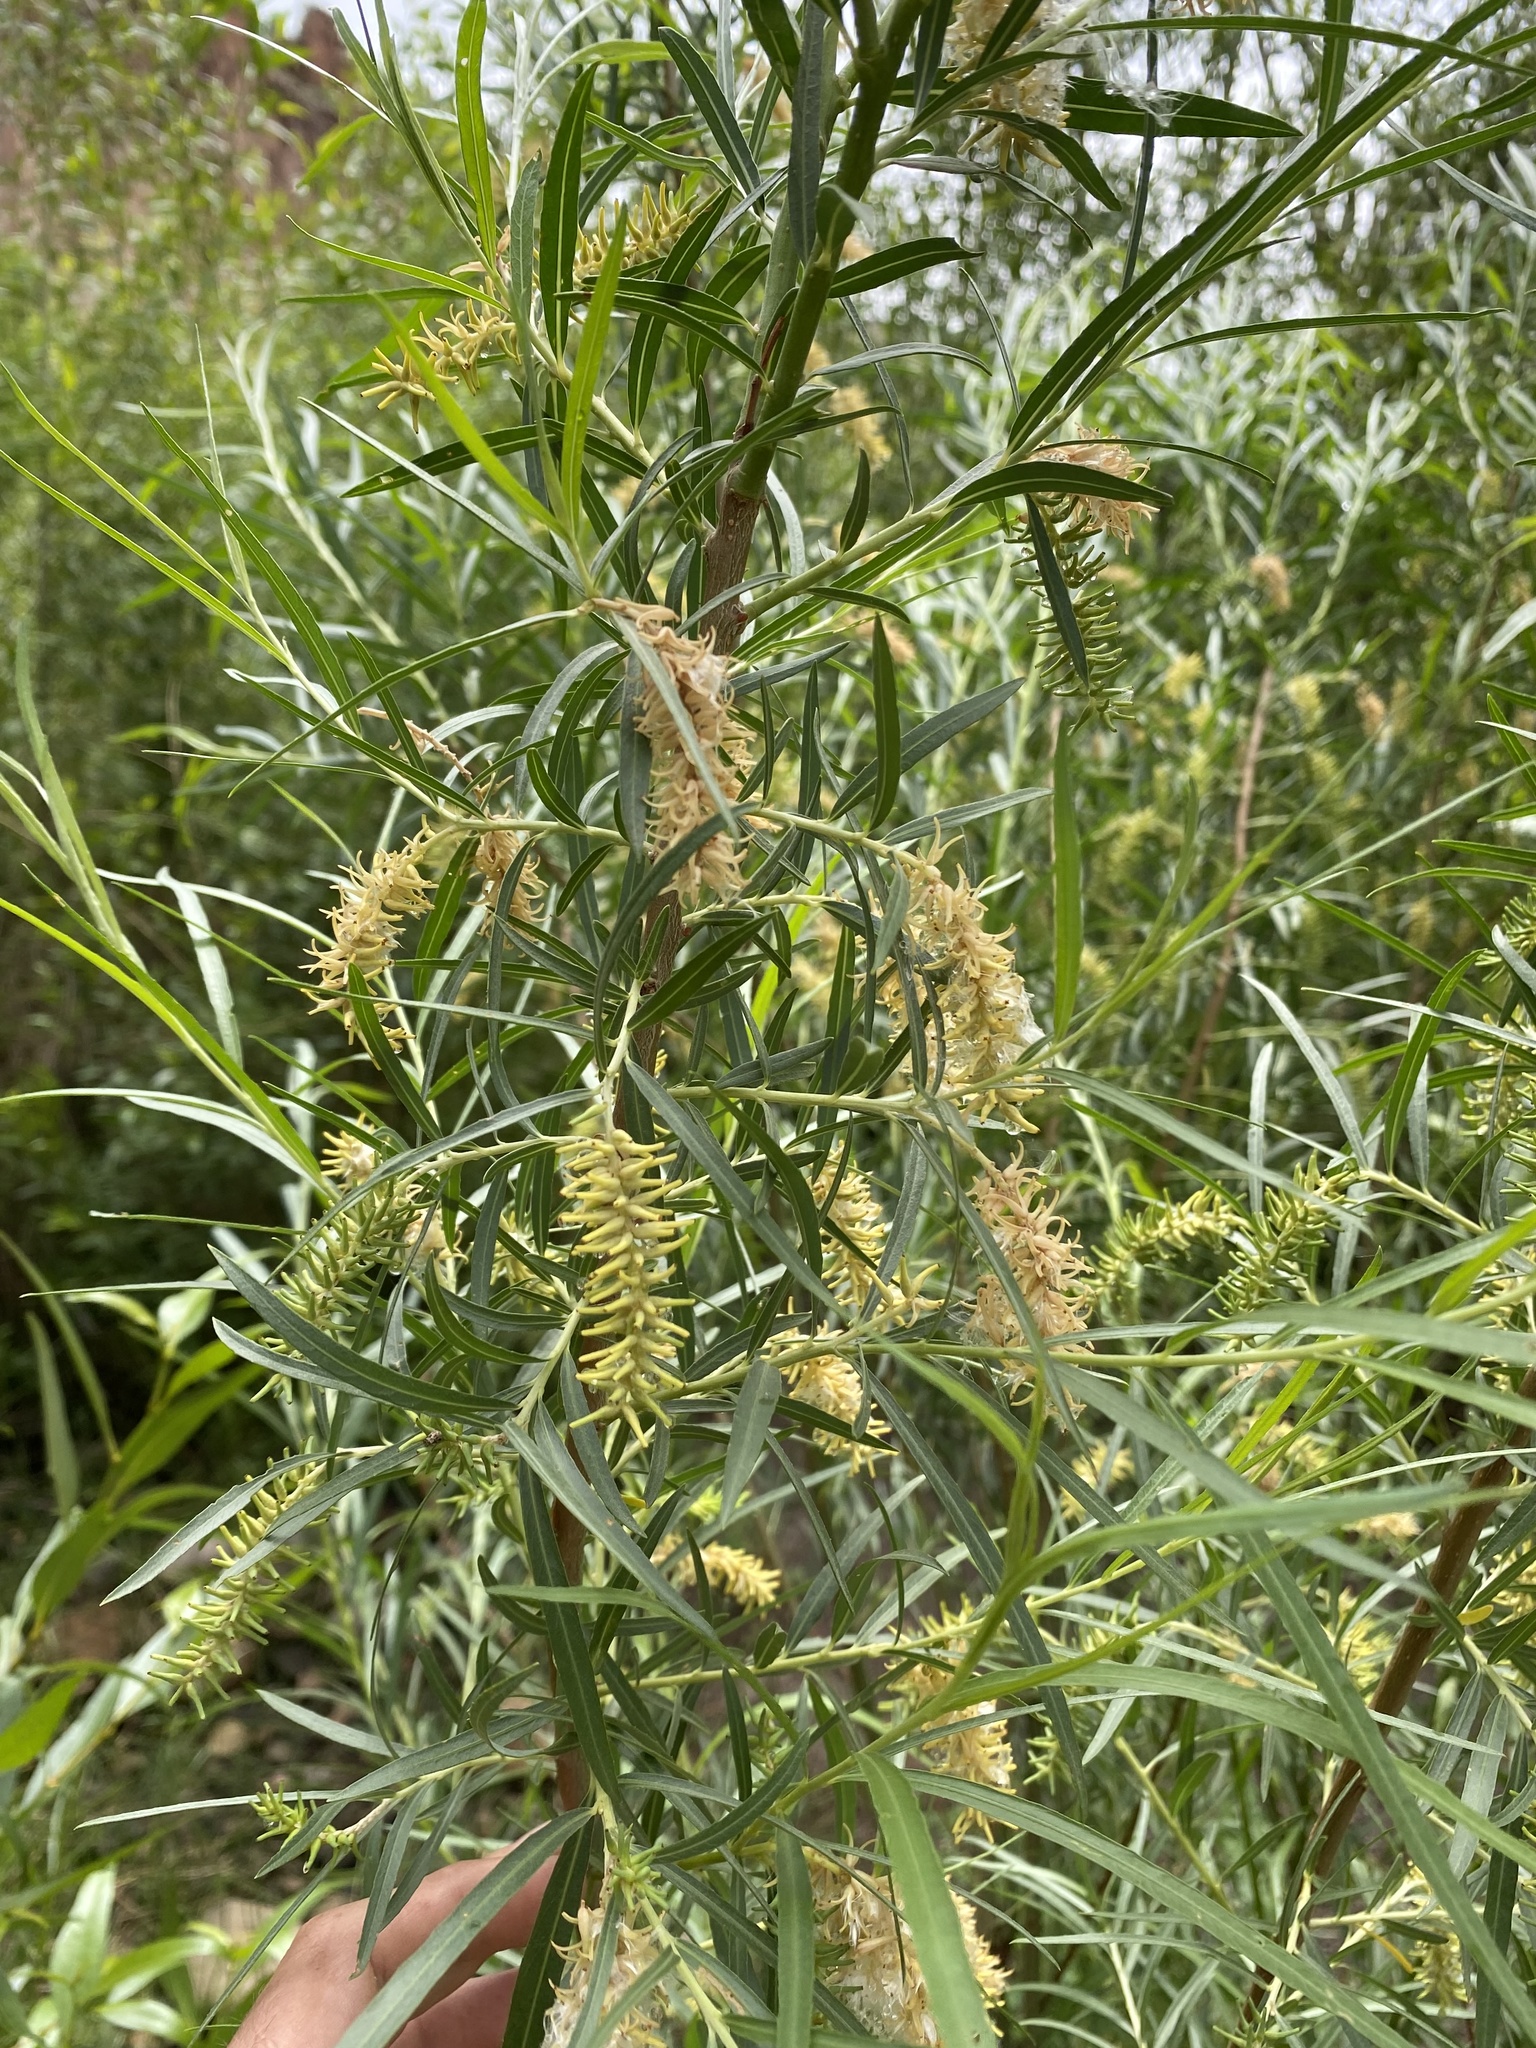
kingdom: Plantae
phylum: Tracheophyta
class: Magnoliopsida
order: Malpighiales
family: Salicaceae
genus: Salix
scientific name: Salix exigua
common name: Coyote willow
